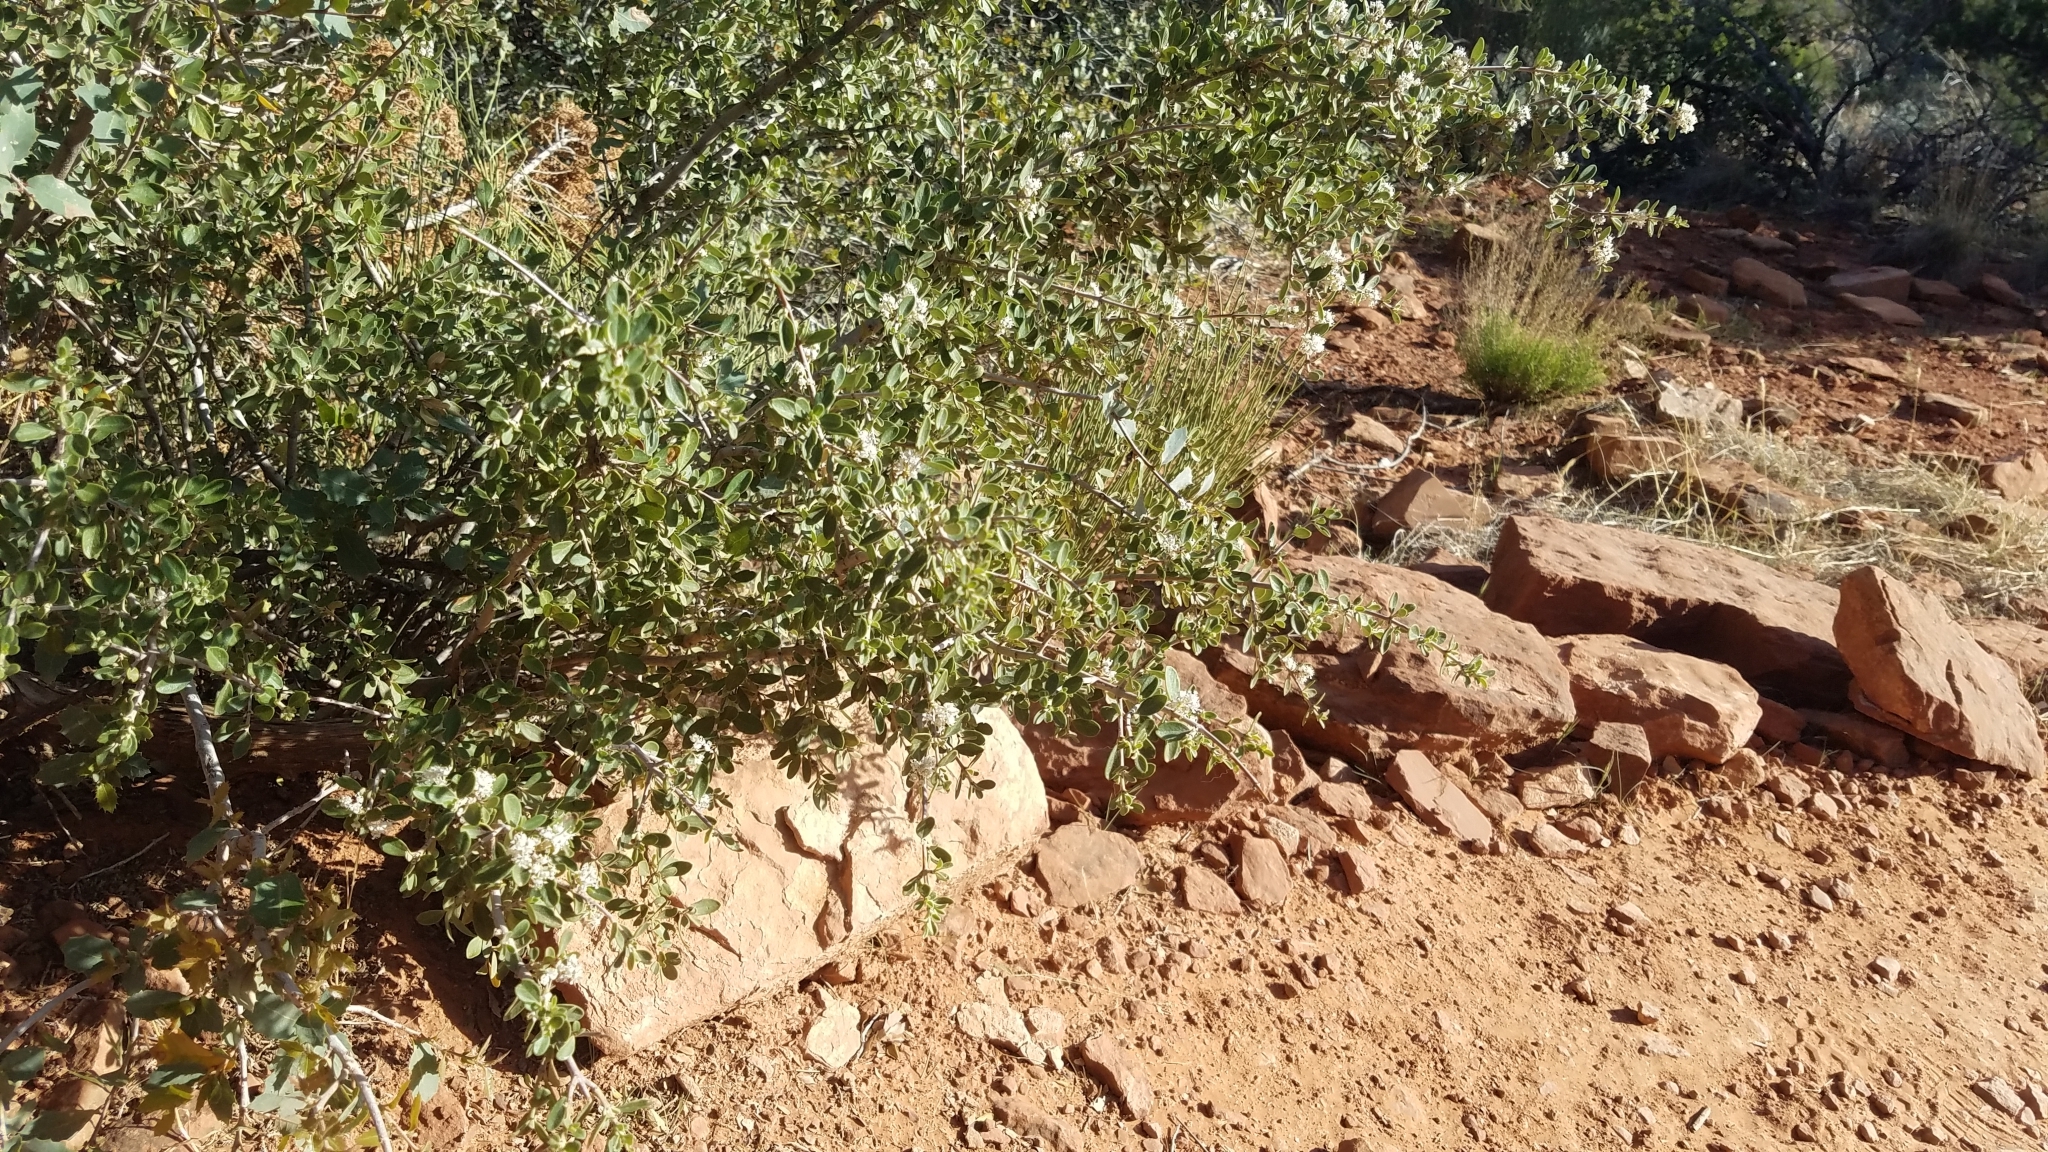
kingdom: Plantae
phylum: Tracheophyta
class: Magnoliopsida
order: Rosales
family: Rhamnaceae
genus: Ceanothus
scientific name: Ceanothus pauciflorus
